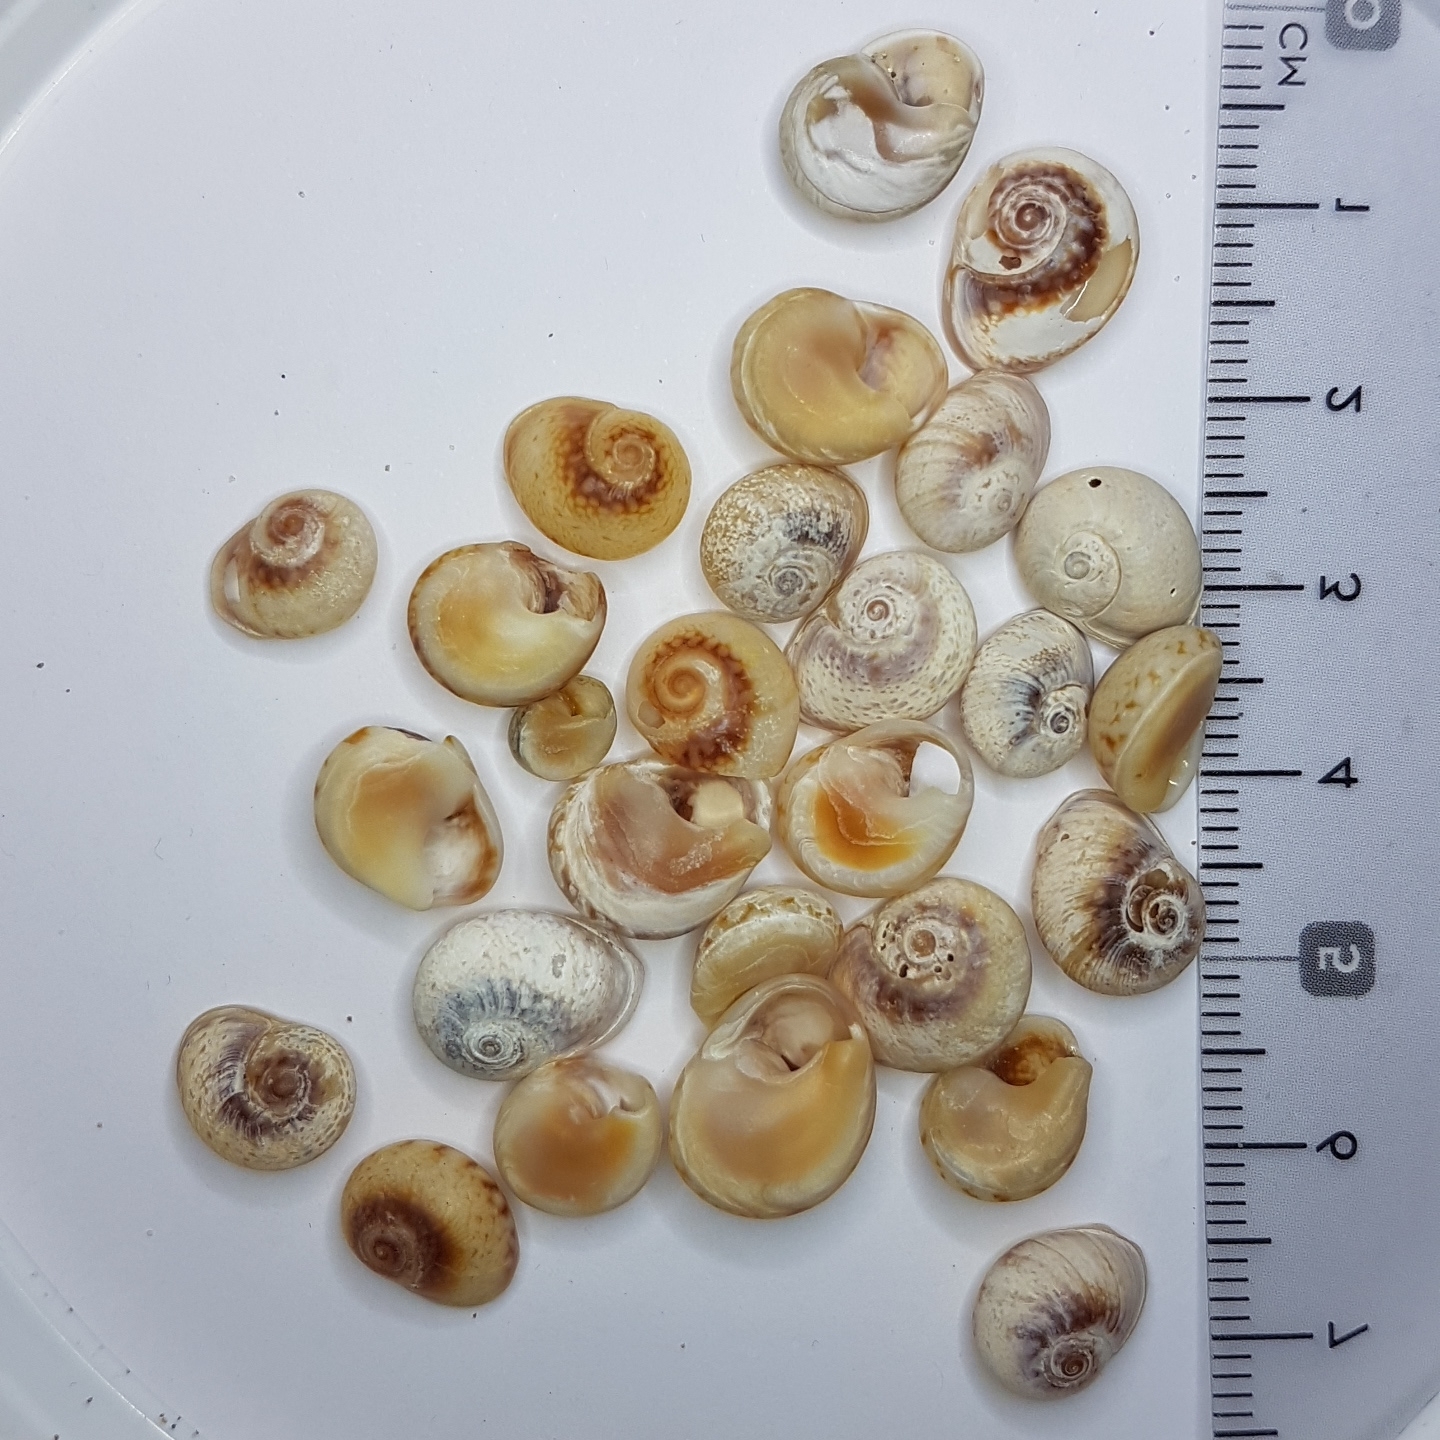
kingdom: Animalia
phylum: Mollusca
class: Gastropoda
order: Neogastropoda
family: Nassariidae
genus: Tritia
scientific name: Tritia neritea
